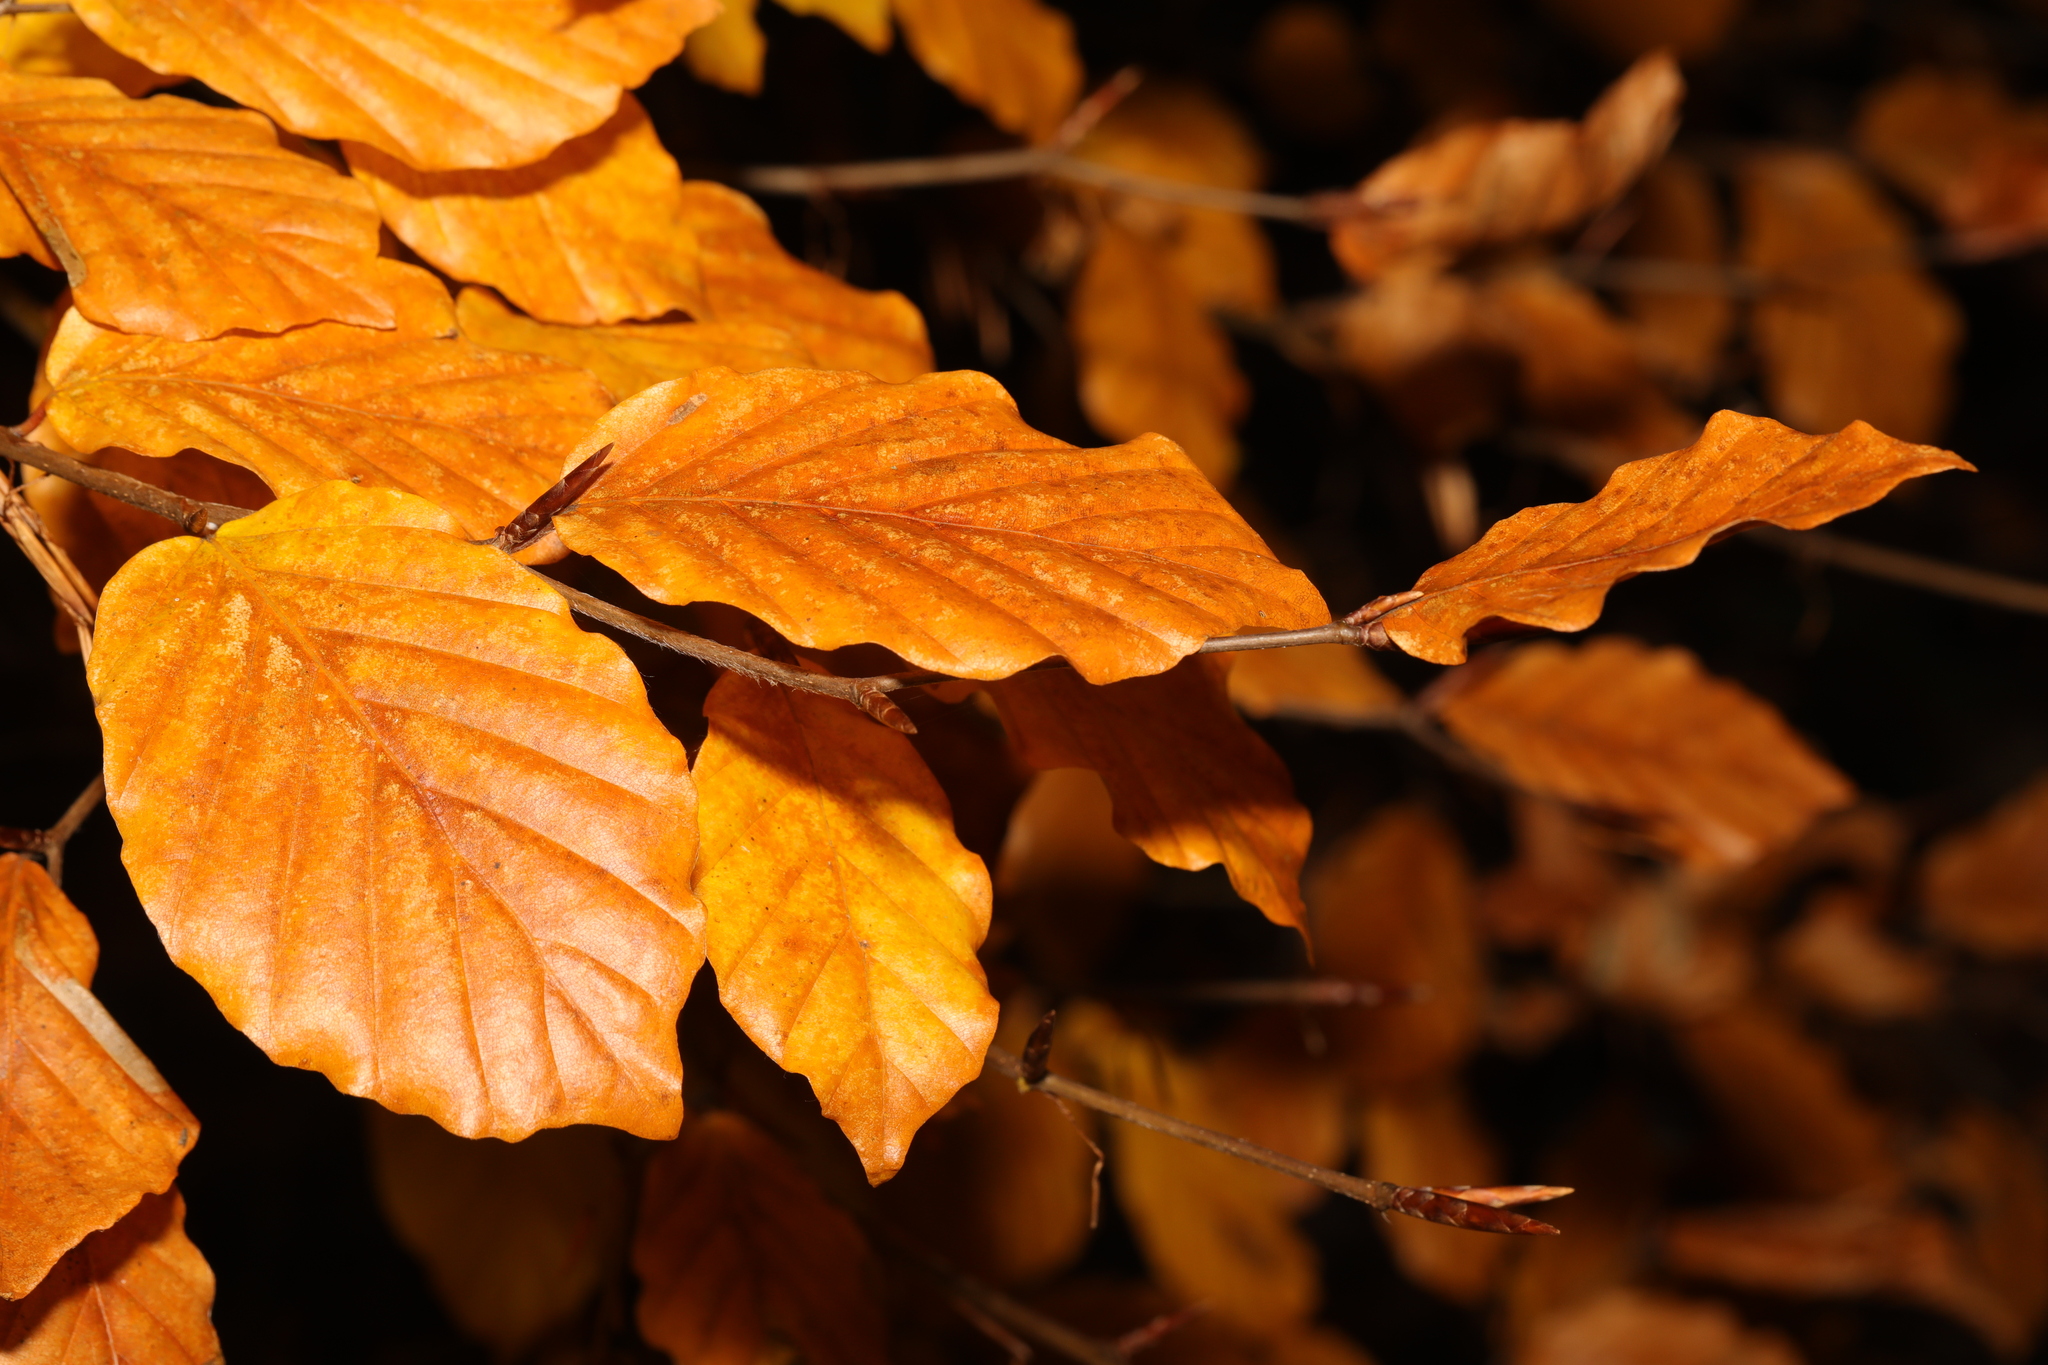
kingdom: Plantae
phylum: Tracheophyta
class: Magnoliopsida
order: Fagales
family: Fagaceae
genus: Fagus
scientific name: Fagus sylvatica
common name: Beech
